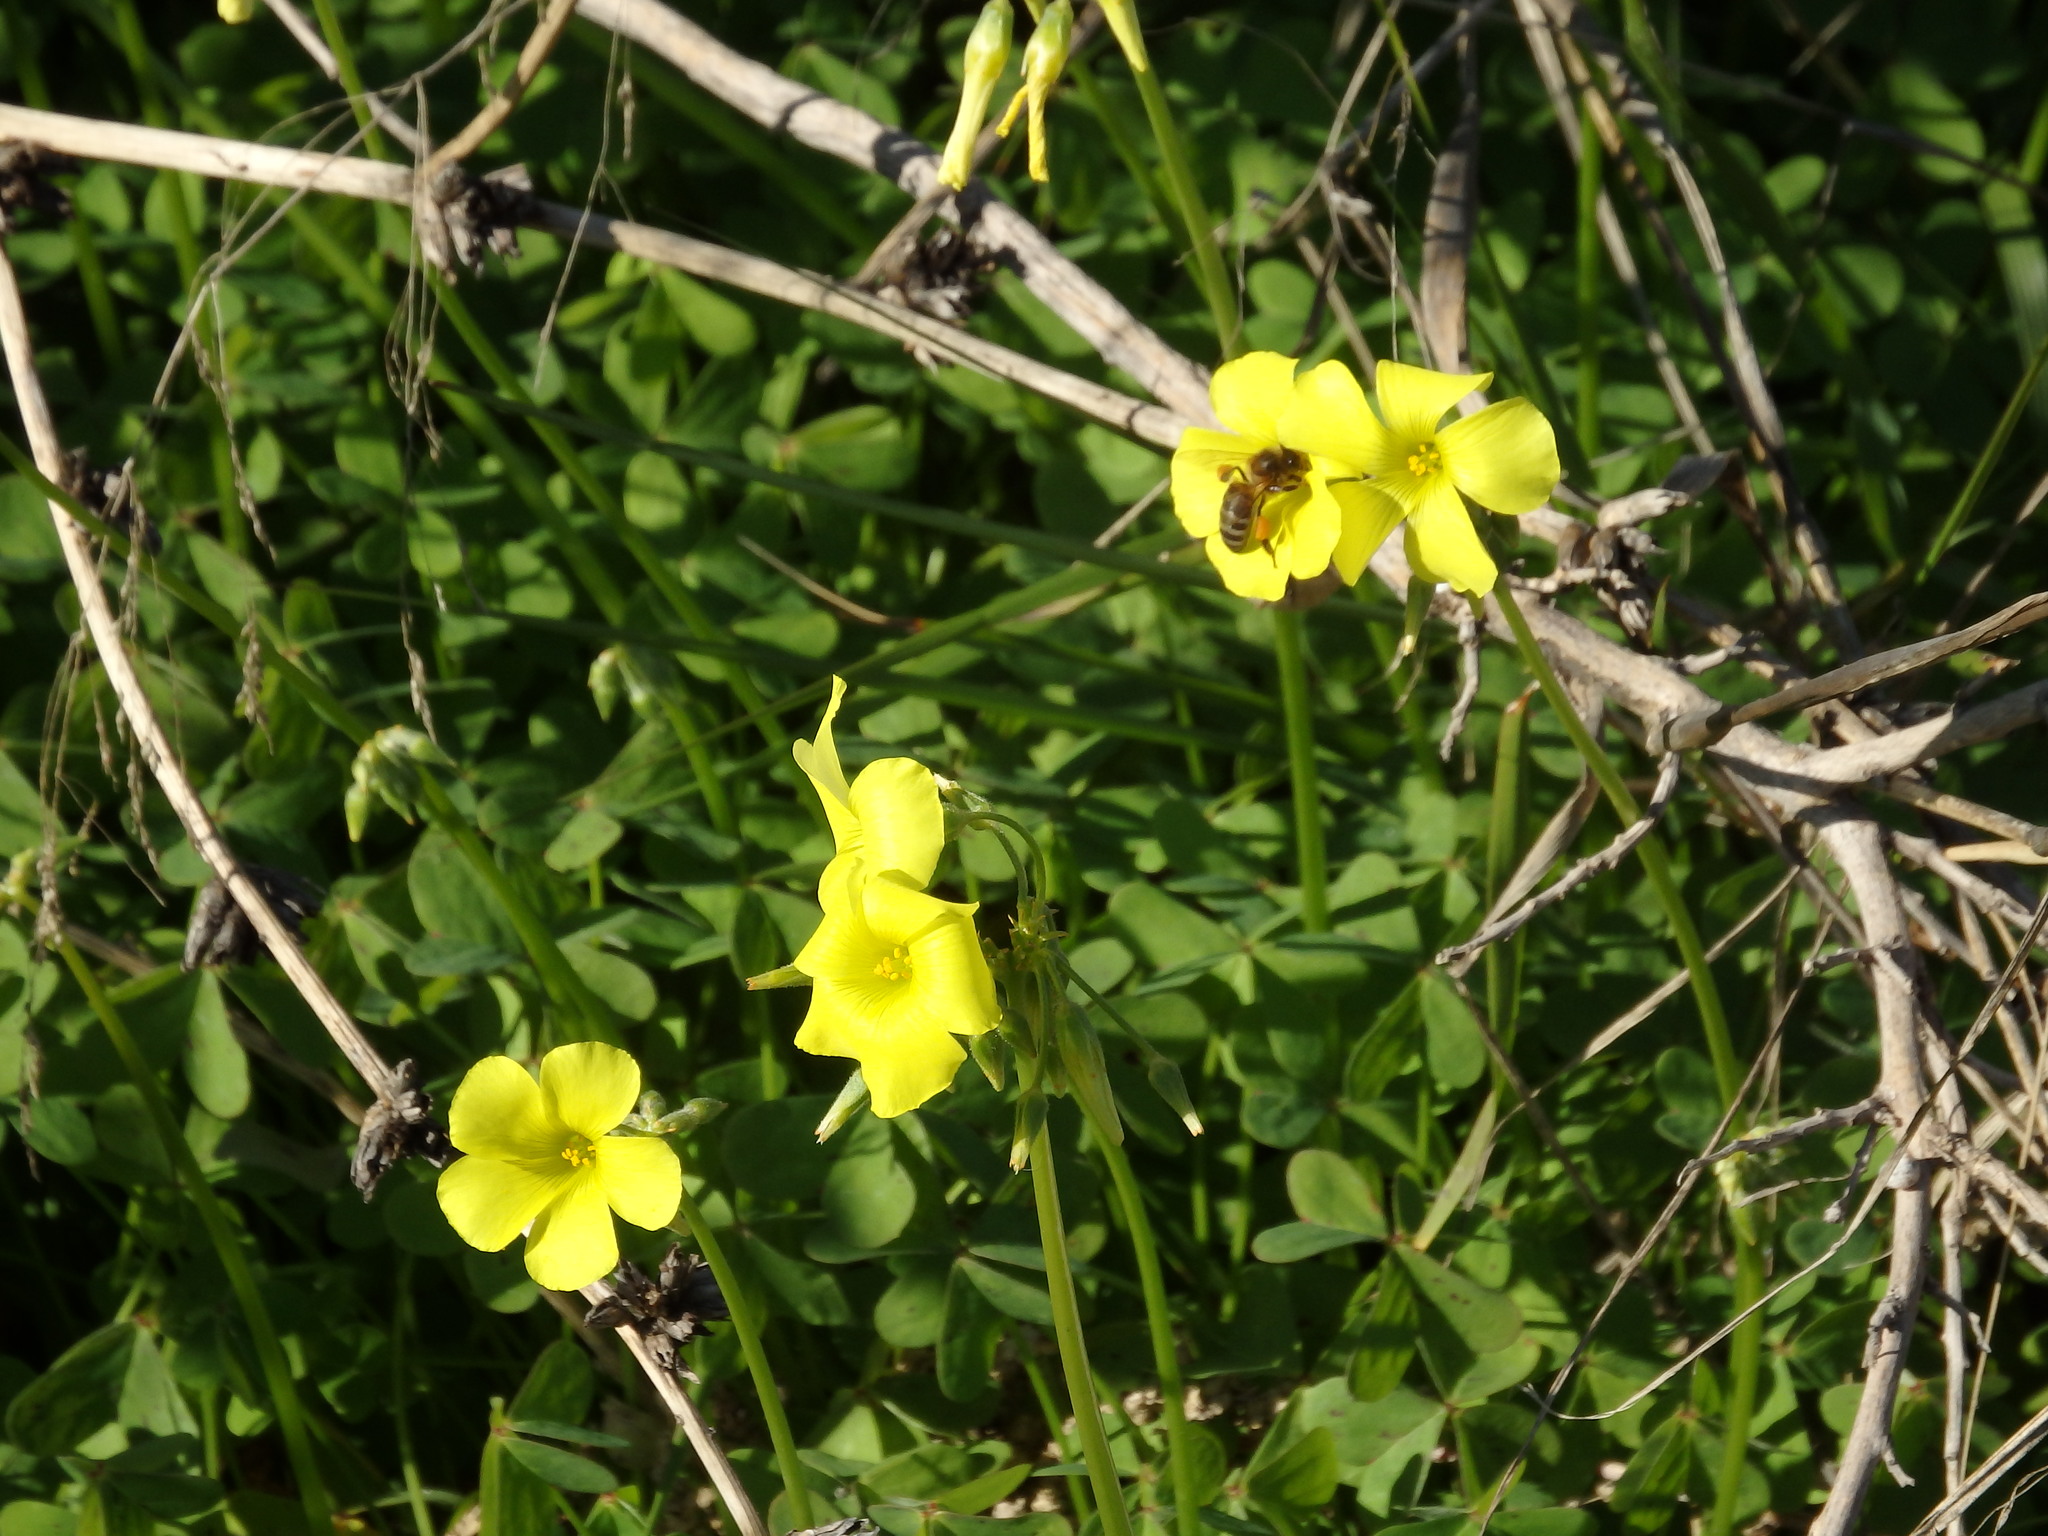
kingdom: Plantae
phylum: Tracheophyta
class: Magnoliopsida
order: Oxalidales
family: Oxalidaceae
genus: Oxalis
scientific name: Oxalis pes-caprae
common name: Bermuda-buttercup
